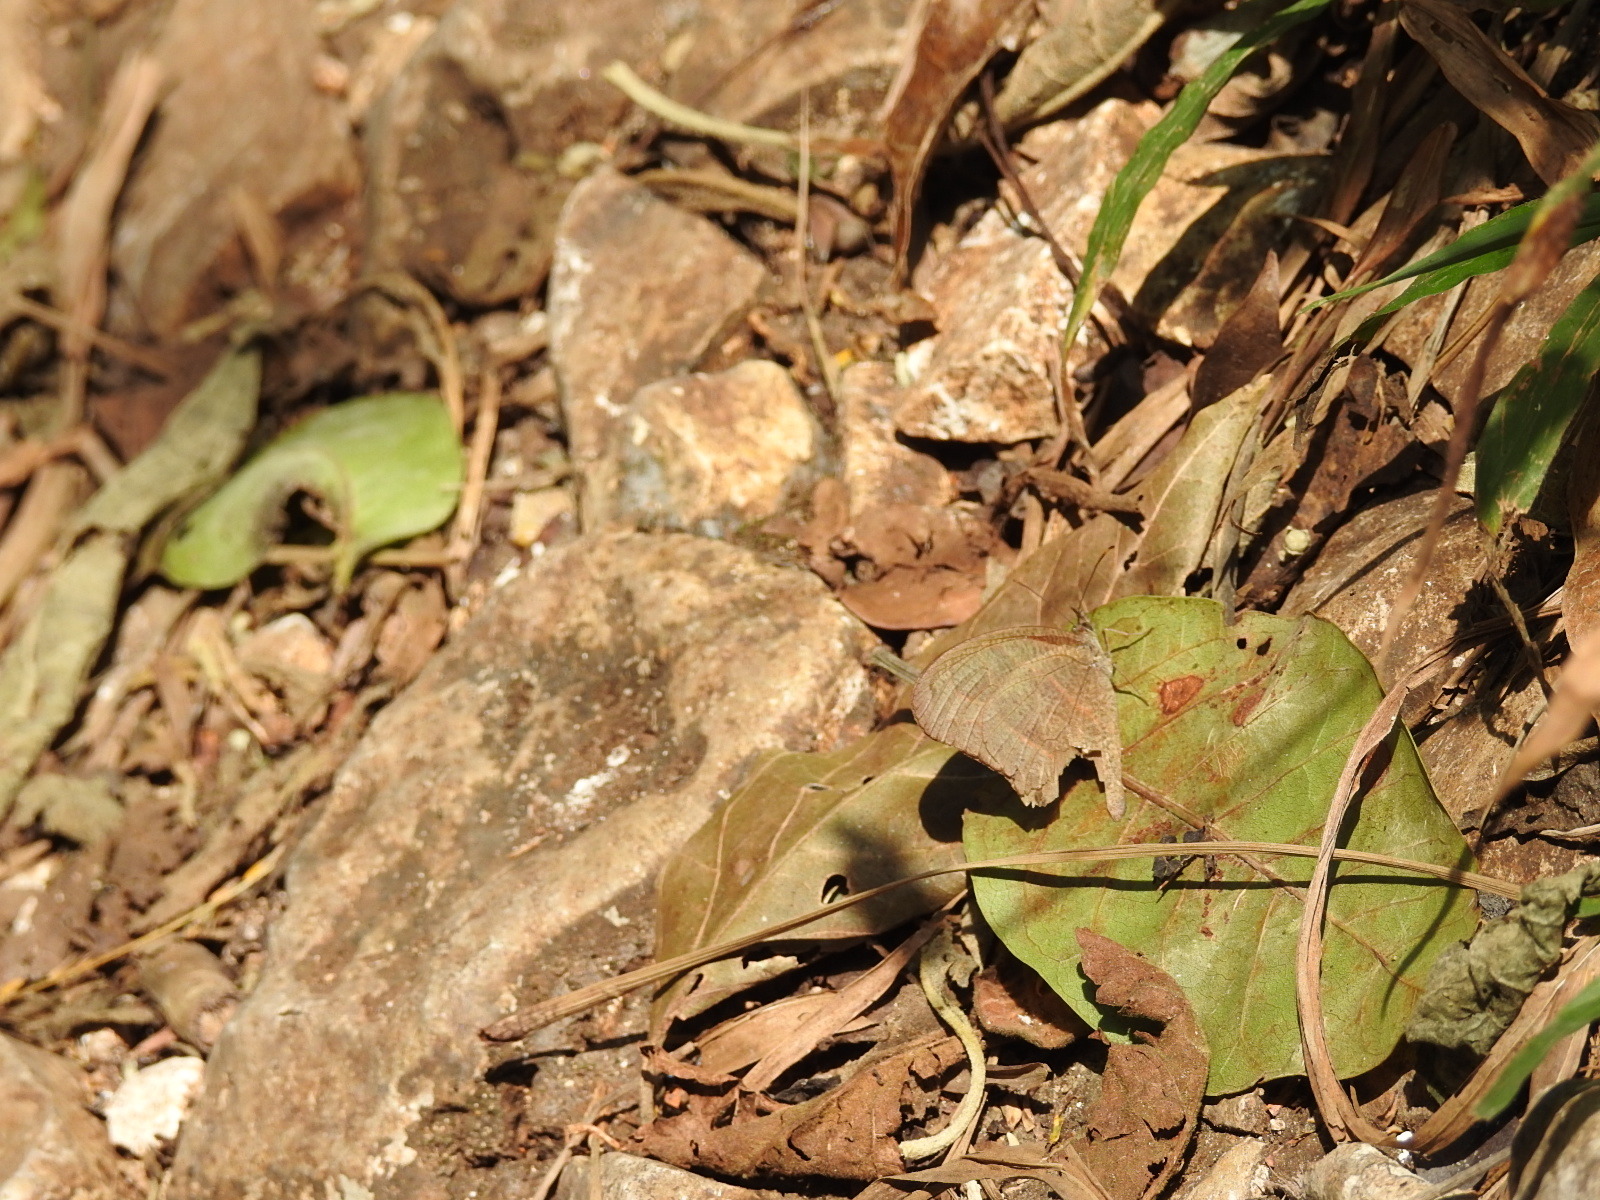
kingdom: Animalia
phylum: Arthropoda
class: Insecta
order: Lepidoptera
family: Nymphalidae
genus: Euptychiina
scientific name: Euptychiina
